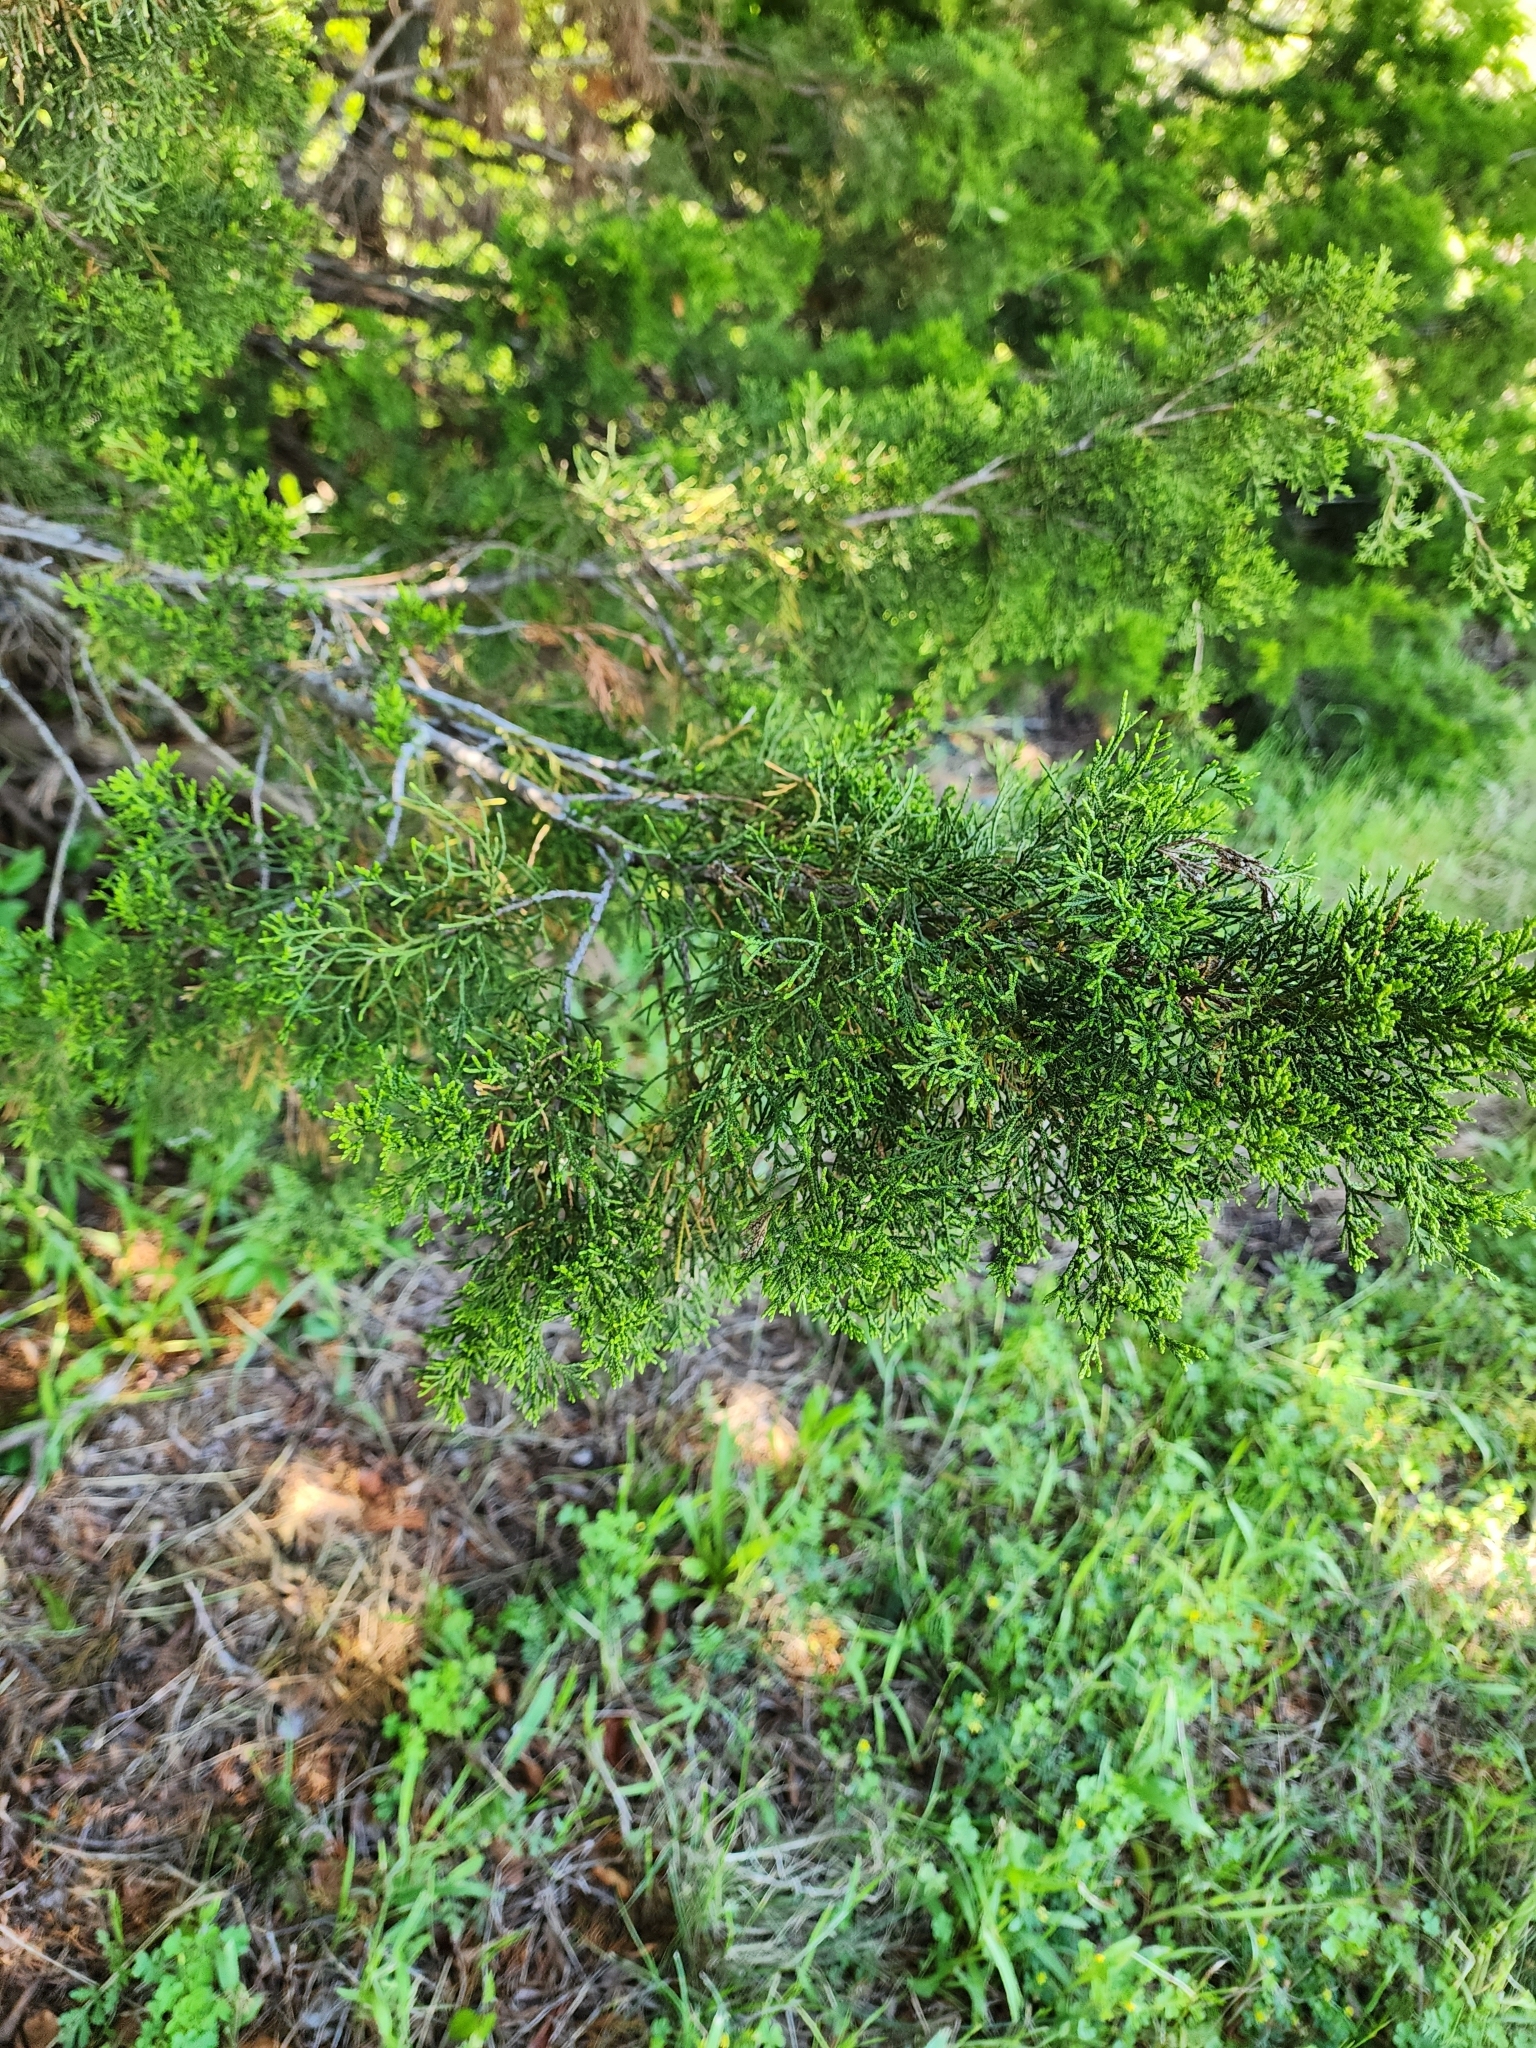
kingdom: Plantae
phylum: Tracheophyta
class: Pinopsida
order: Pinales
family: Cupressaceae
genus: Juniperus
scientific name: Juniperus ashei
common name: Mexican juniper
